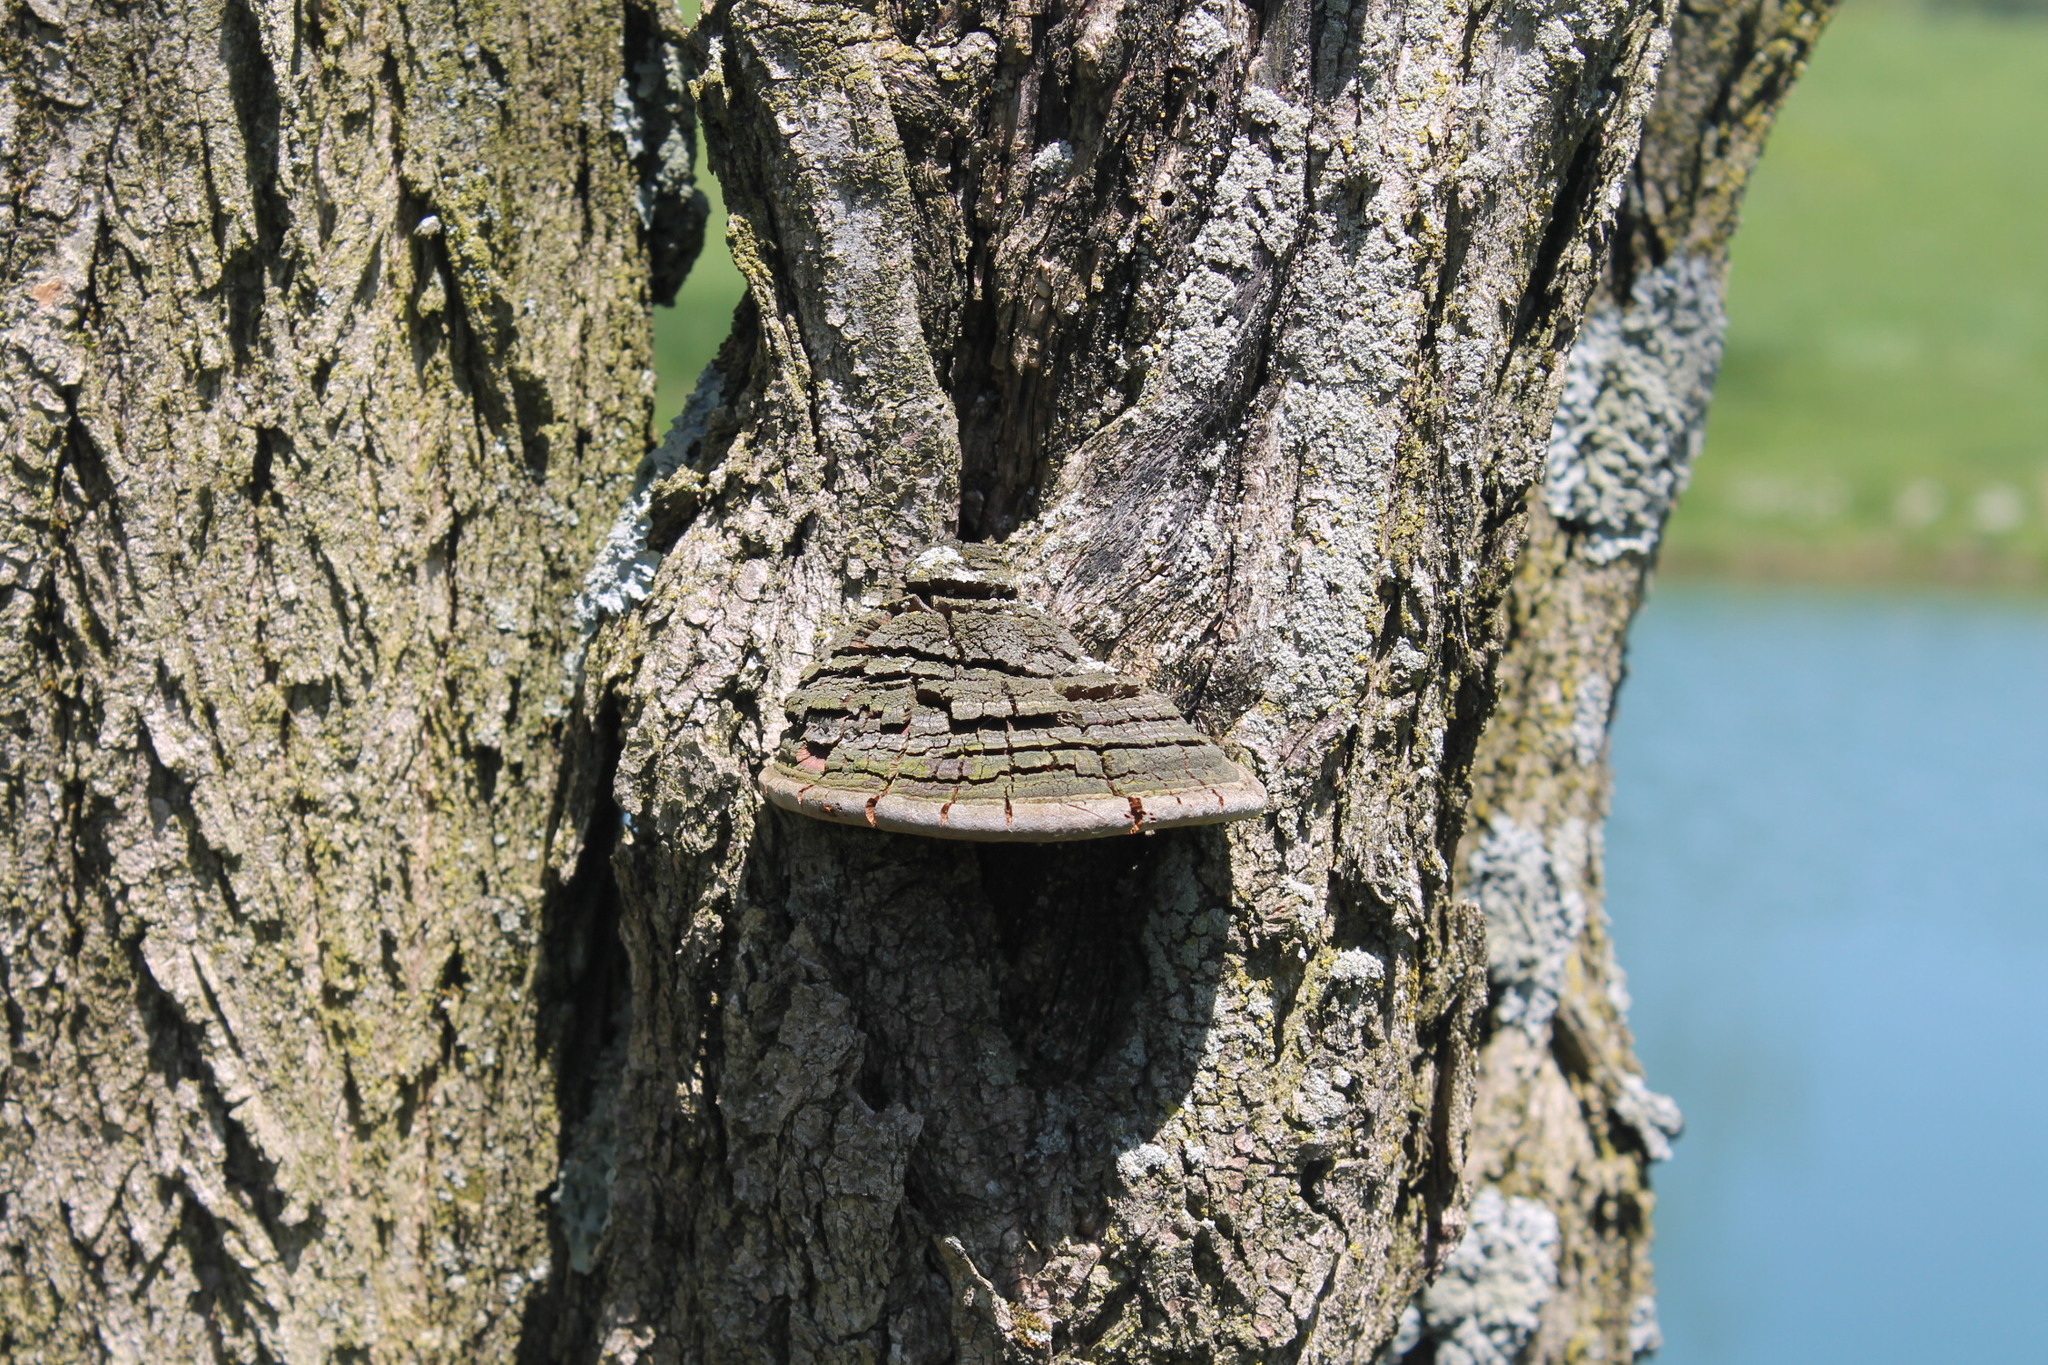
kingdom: Fungi
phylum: Basidiomycota
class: Agaricomycetes
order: Hymenochaetales
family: Hymenochaetaceae
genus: Phellinus
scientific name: Phellinus robiniae
